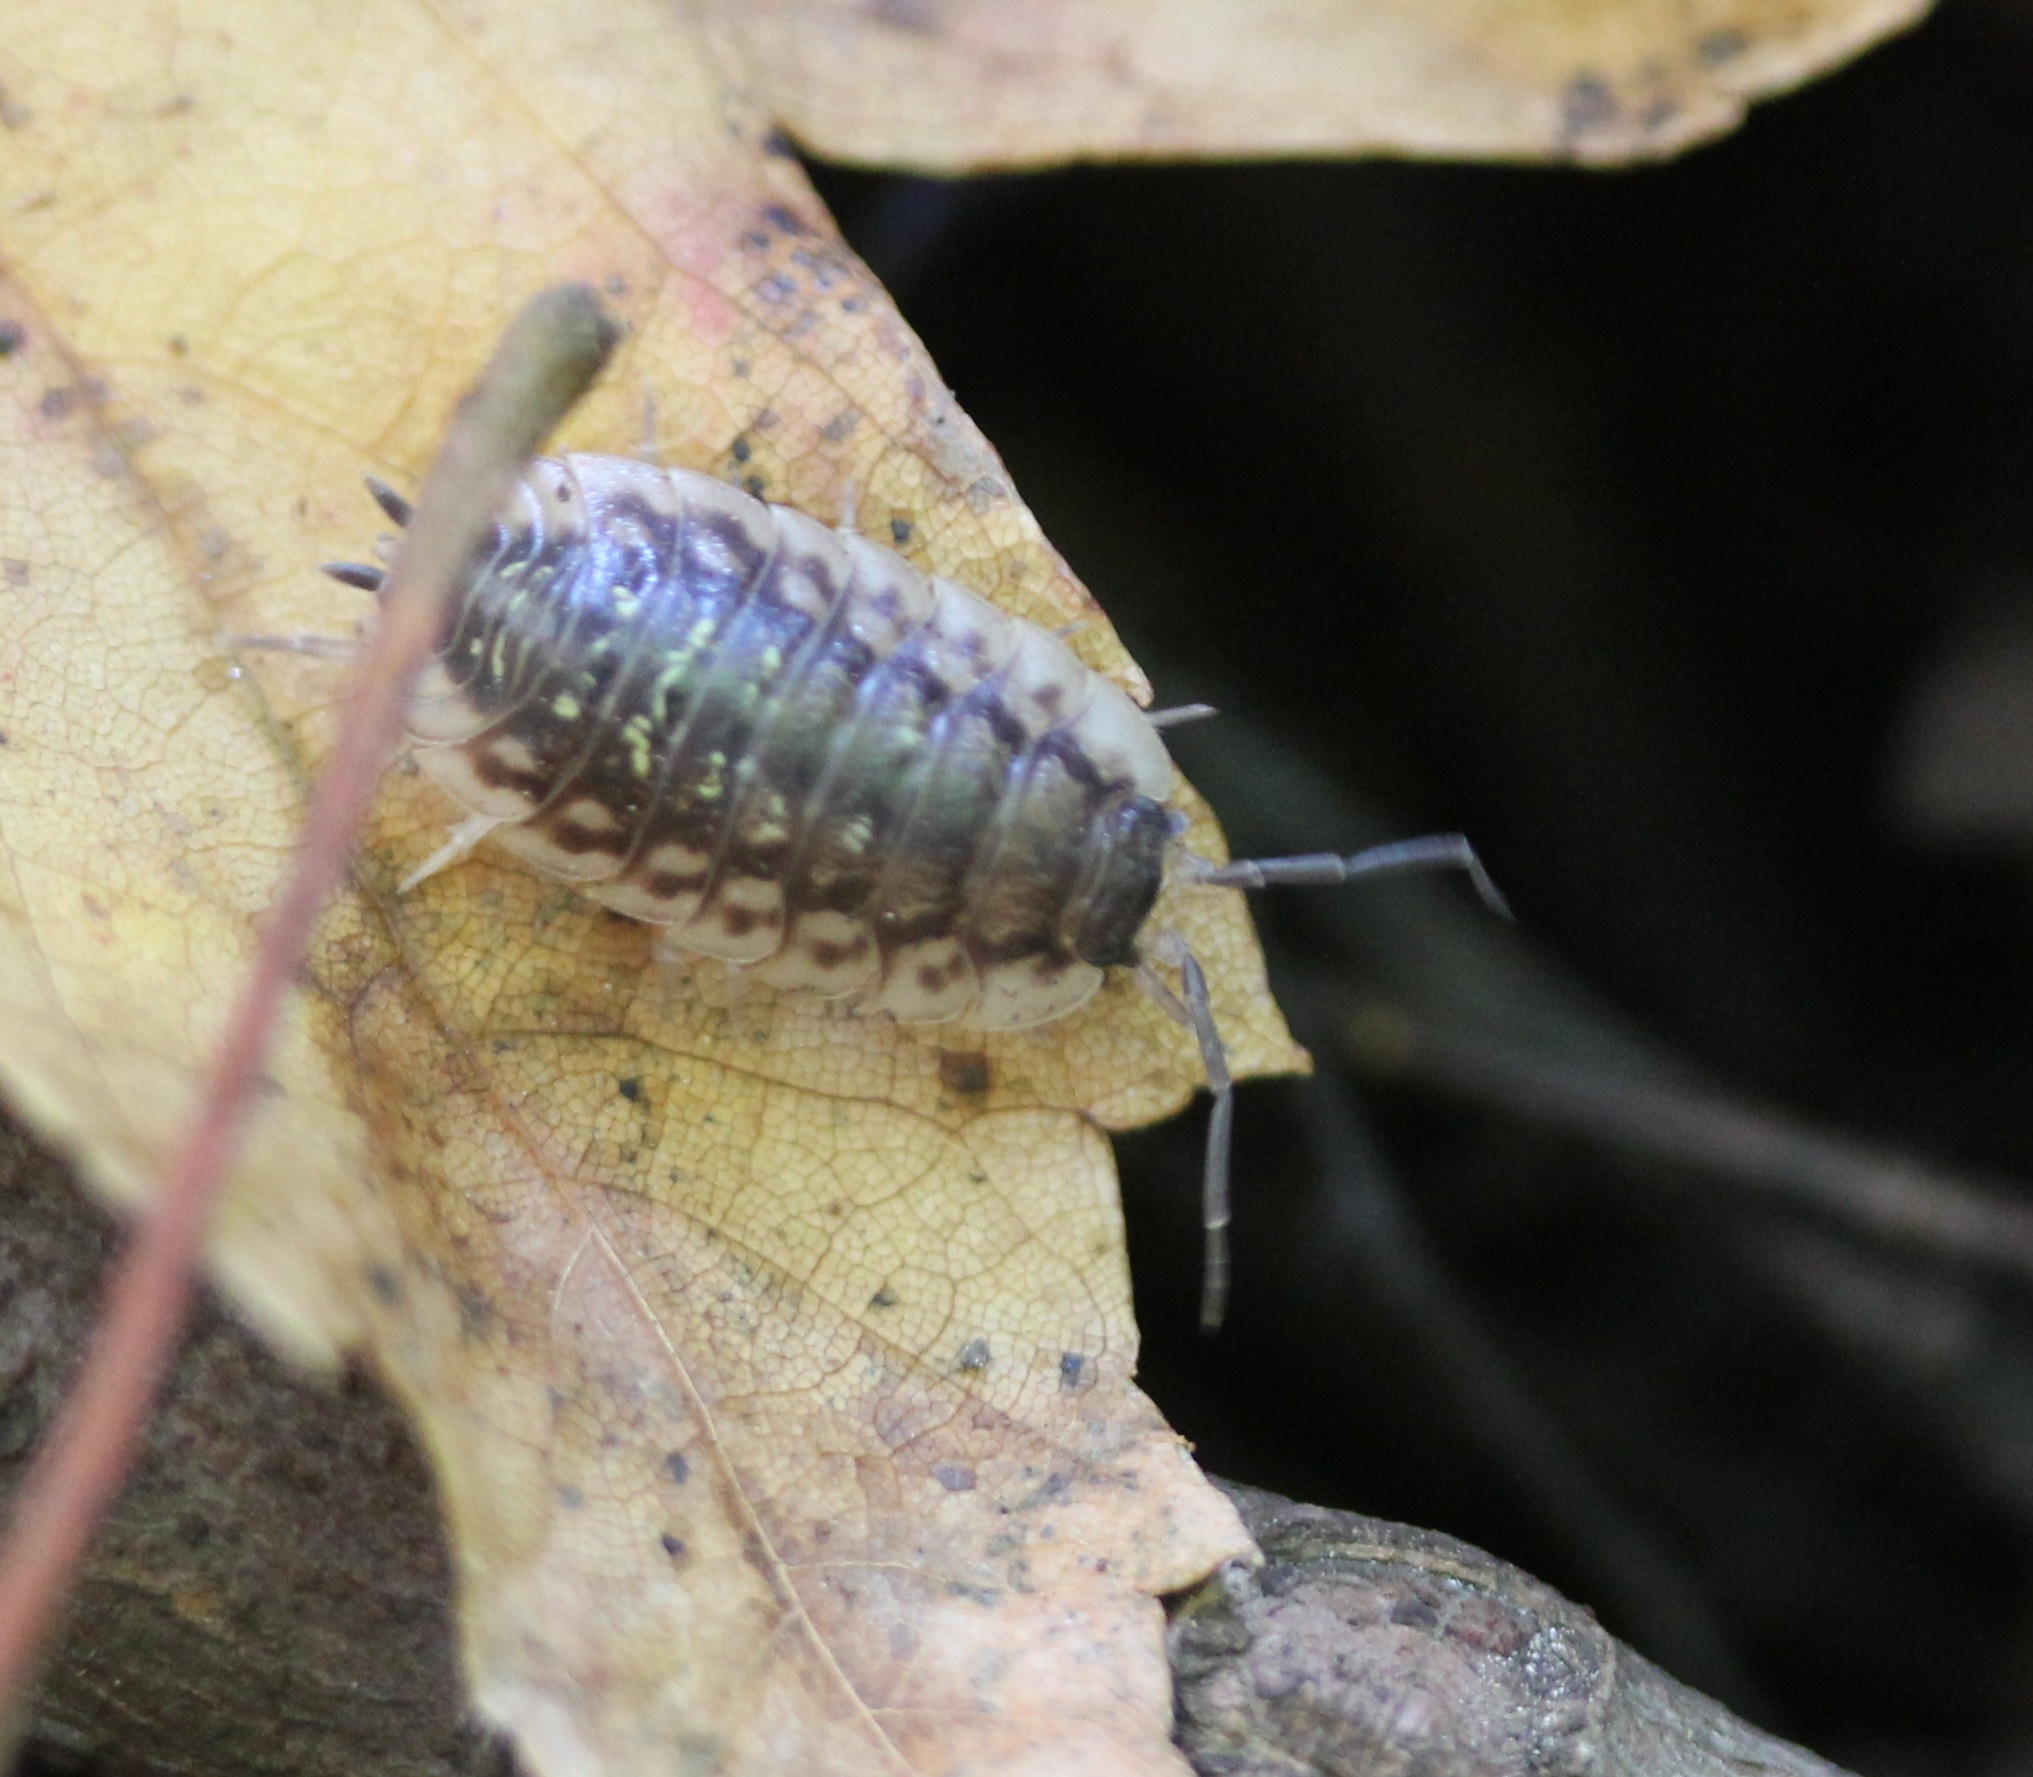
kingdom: Animalia
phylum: Arthropoda
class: Malacostraca
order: Isopoda
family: Oniscidae
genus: Oniscus
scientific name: Oniscus asellus
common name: Common shiny woodlouse
